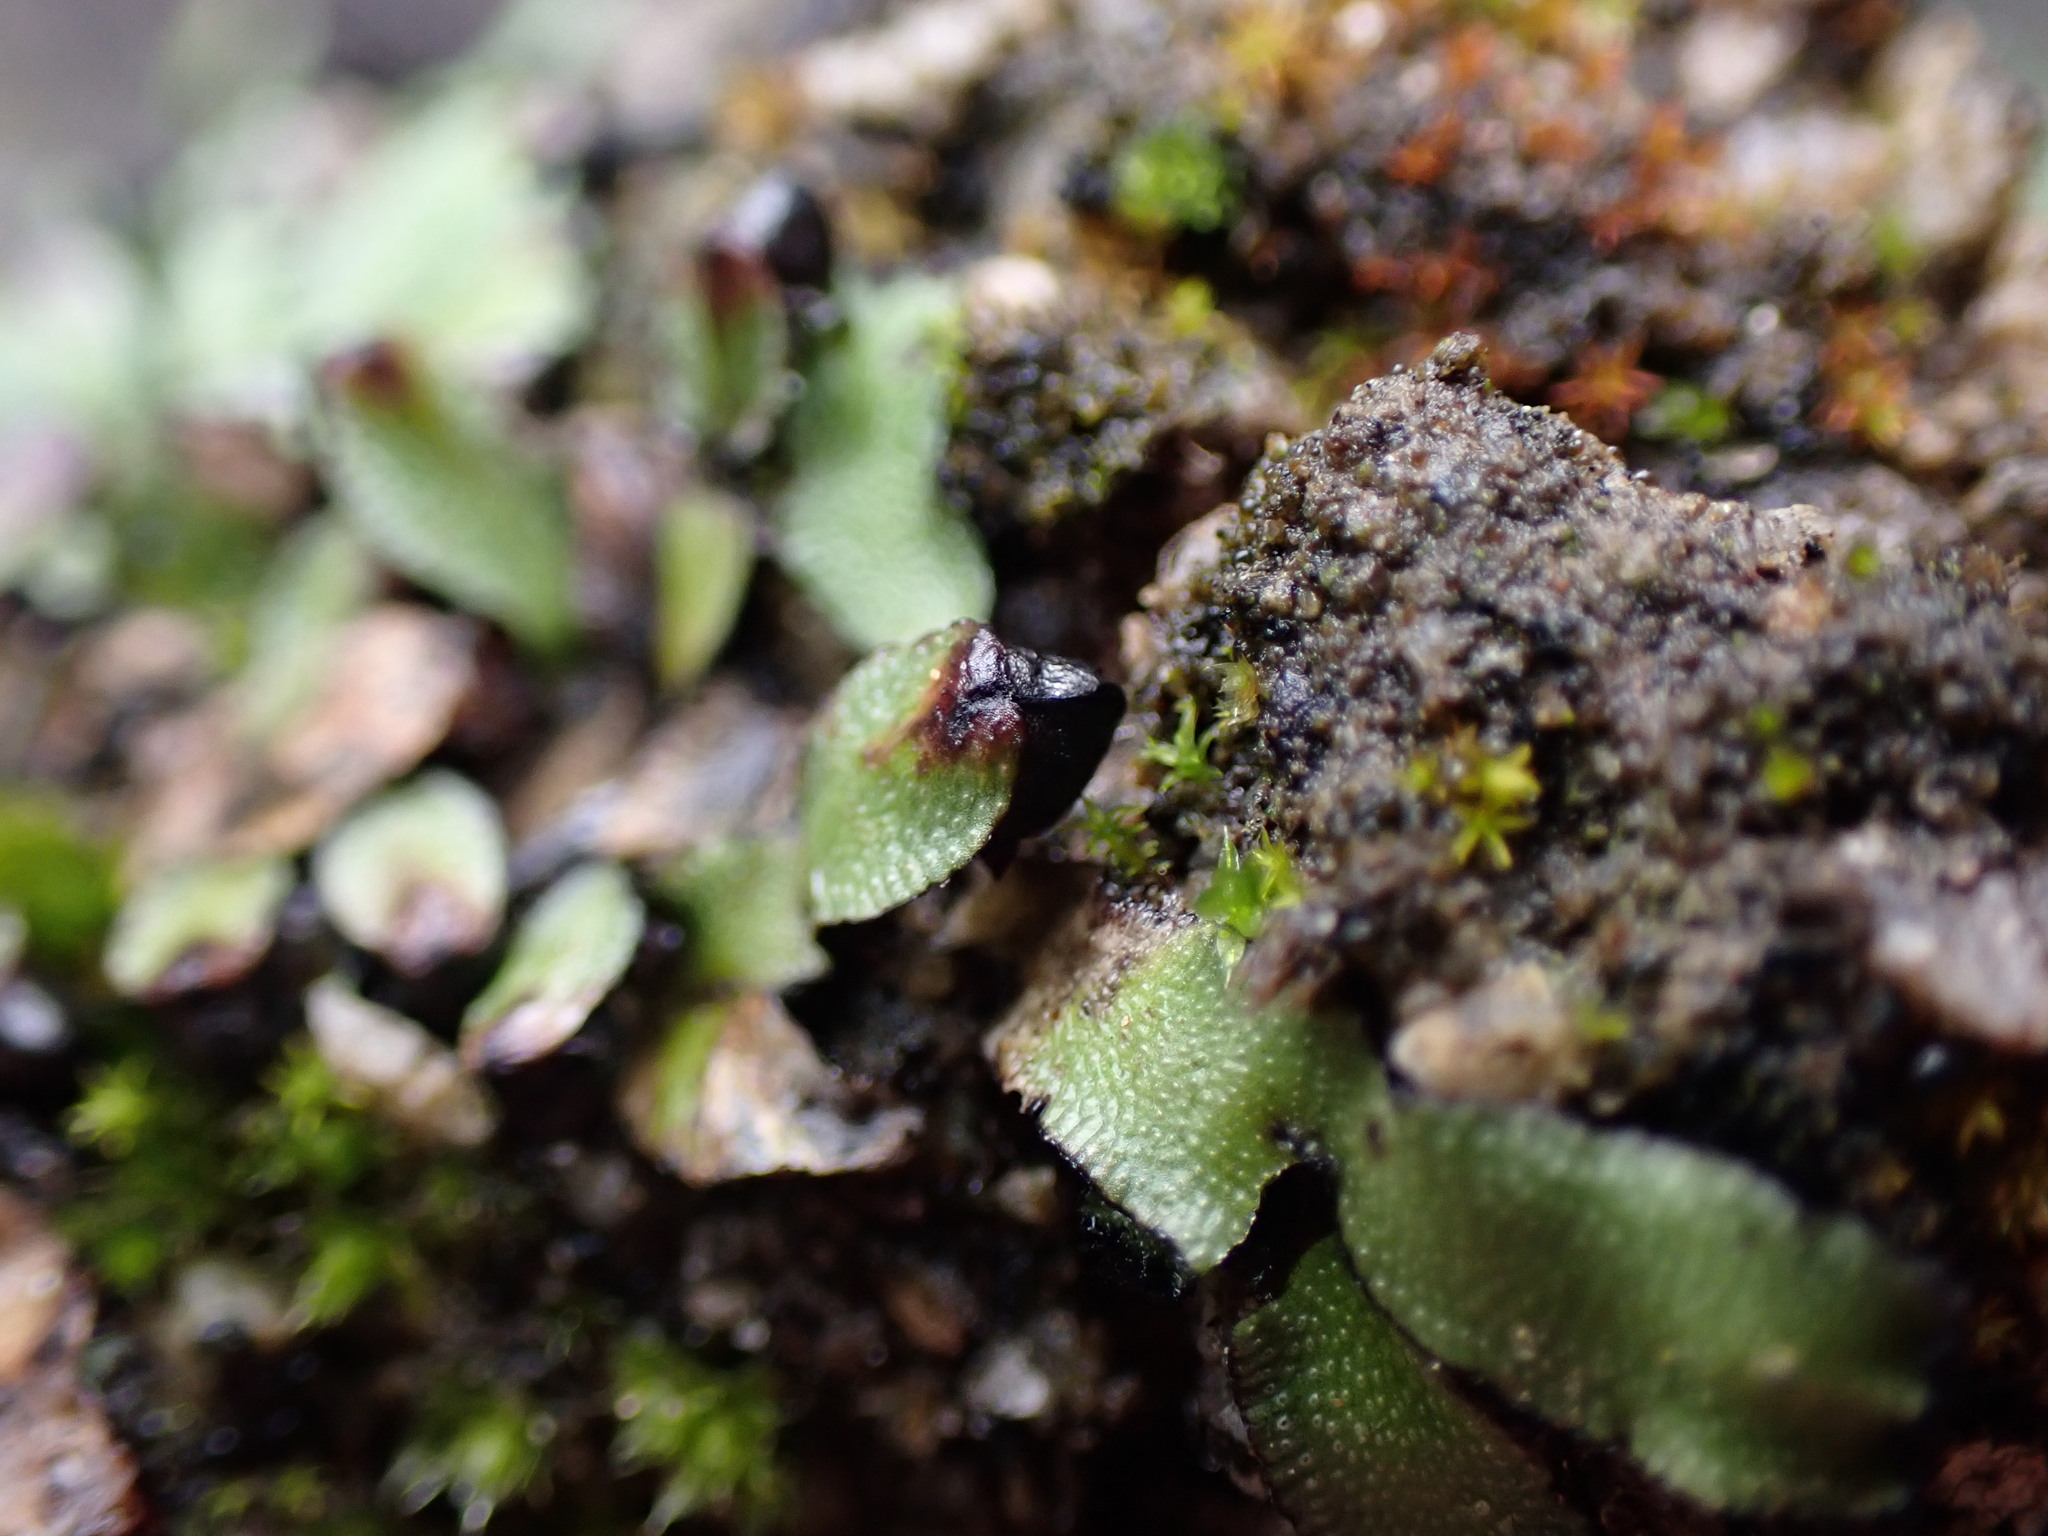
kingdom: Plantae
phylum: Marchantiophyta
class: Marchantiopsida
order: Marchantiales
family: Targioniaceae
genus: Targionia
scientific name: Targionia hypophylla
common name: Orobus-seed liverwort
